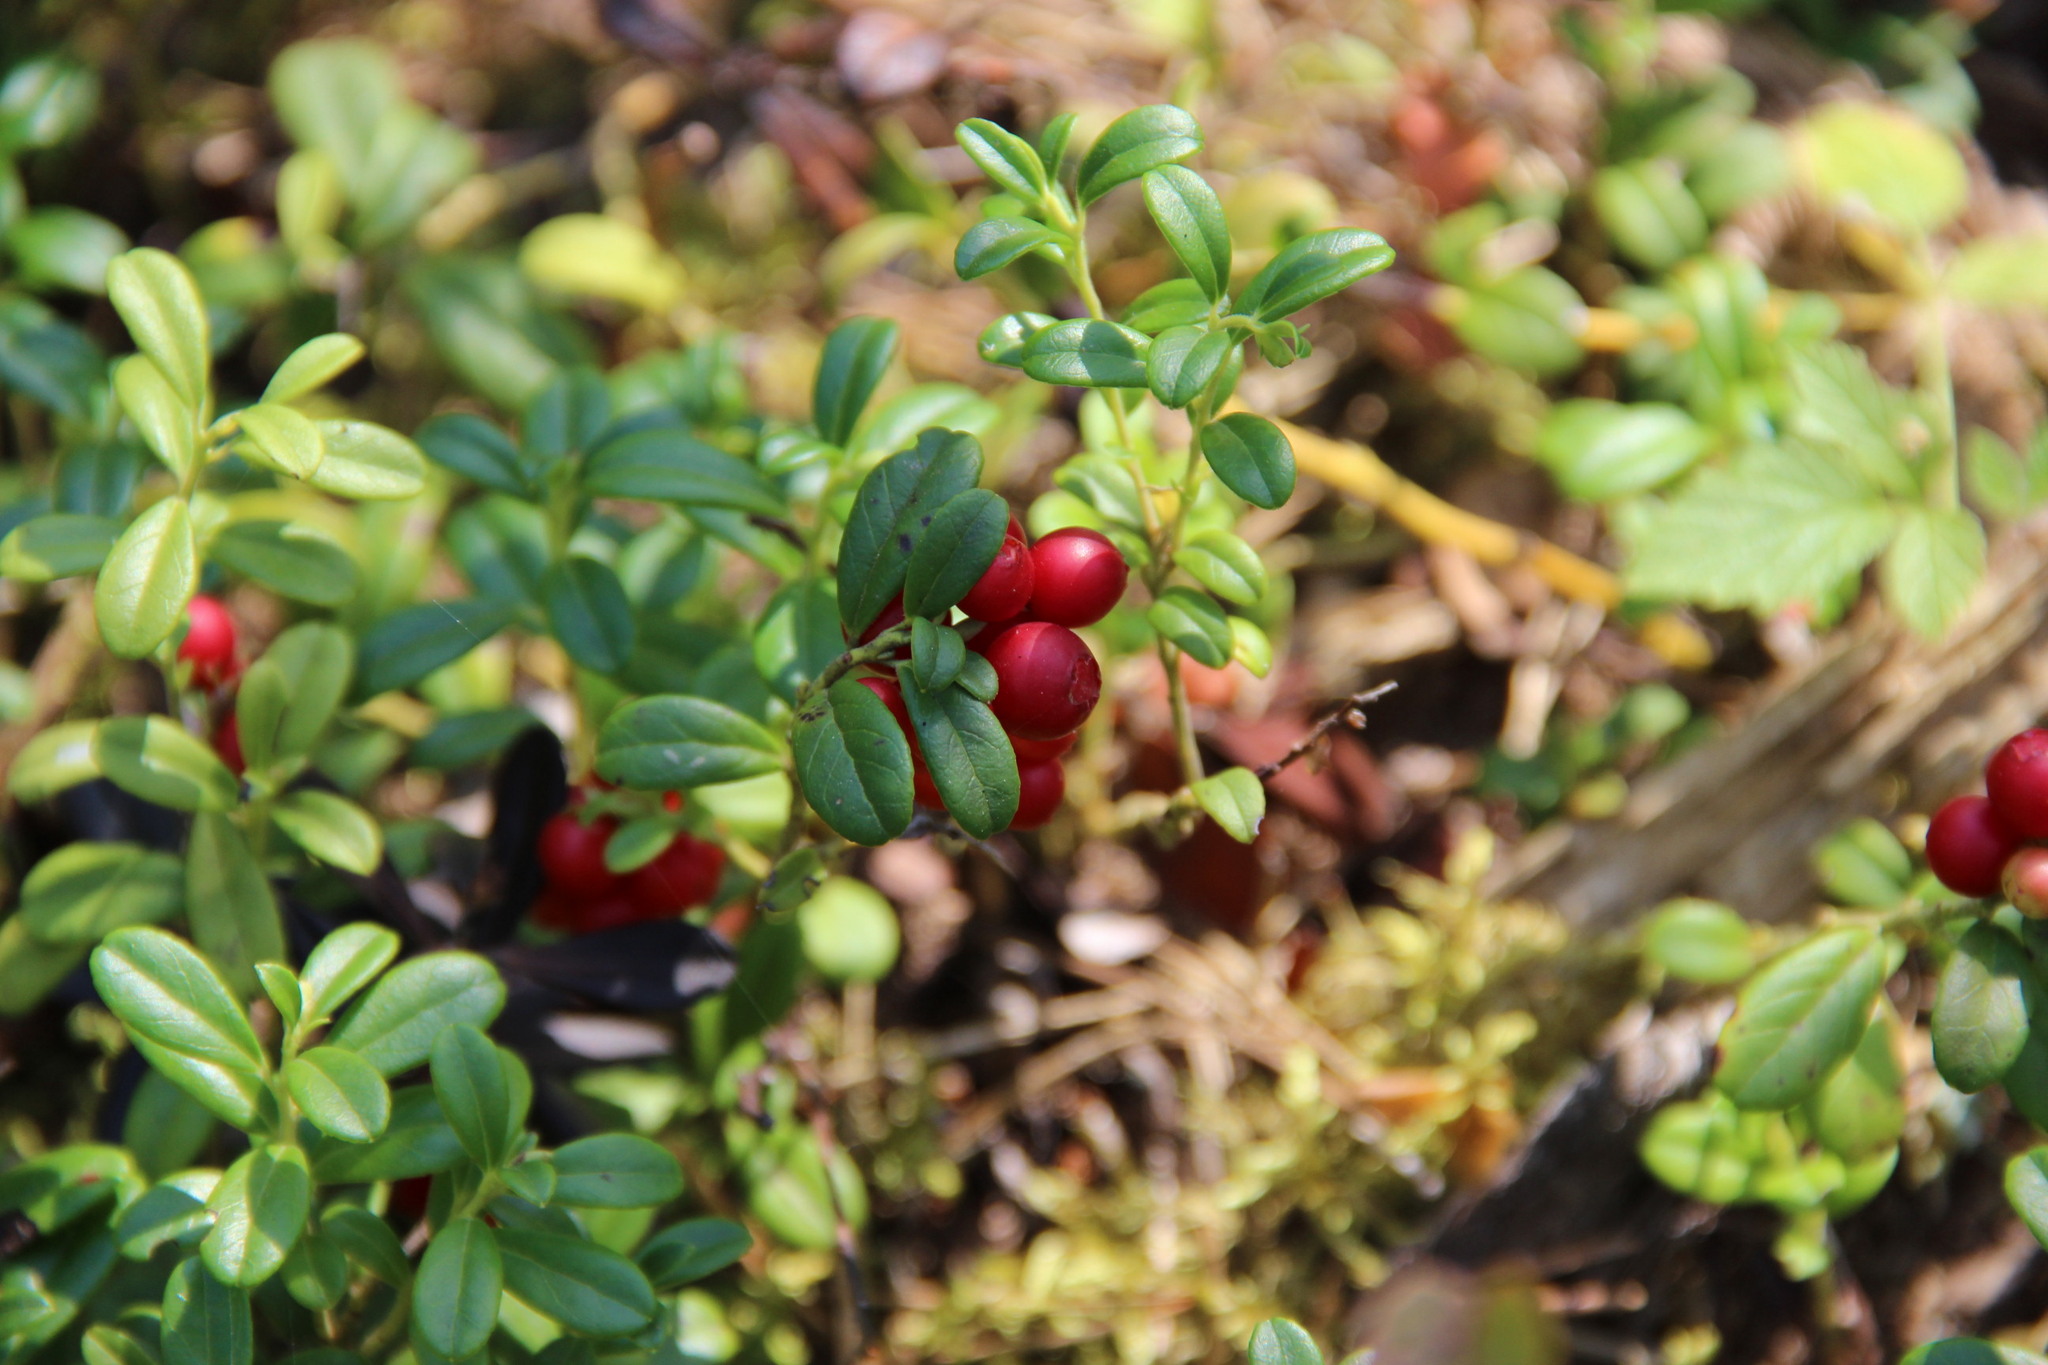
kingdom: Plantae
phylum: Tracheophyta
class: Magnoliopsida
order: Ericales
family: Ericaceae
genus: Vaccinium
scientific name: Vaccinium vitis-idaea
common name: Cowberry
